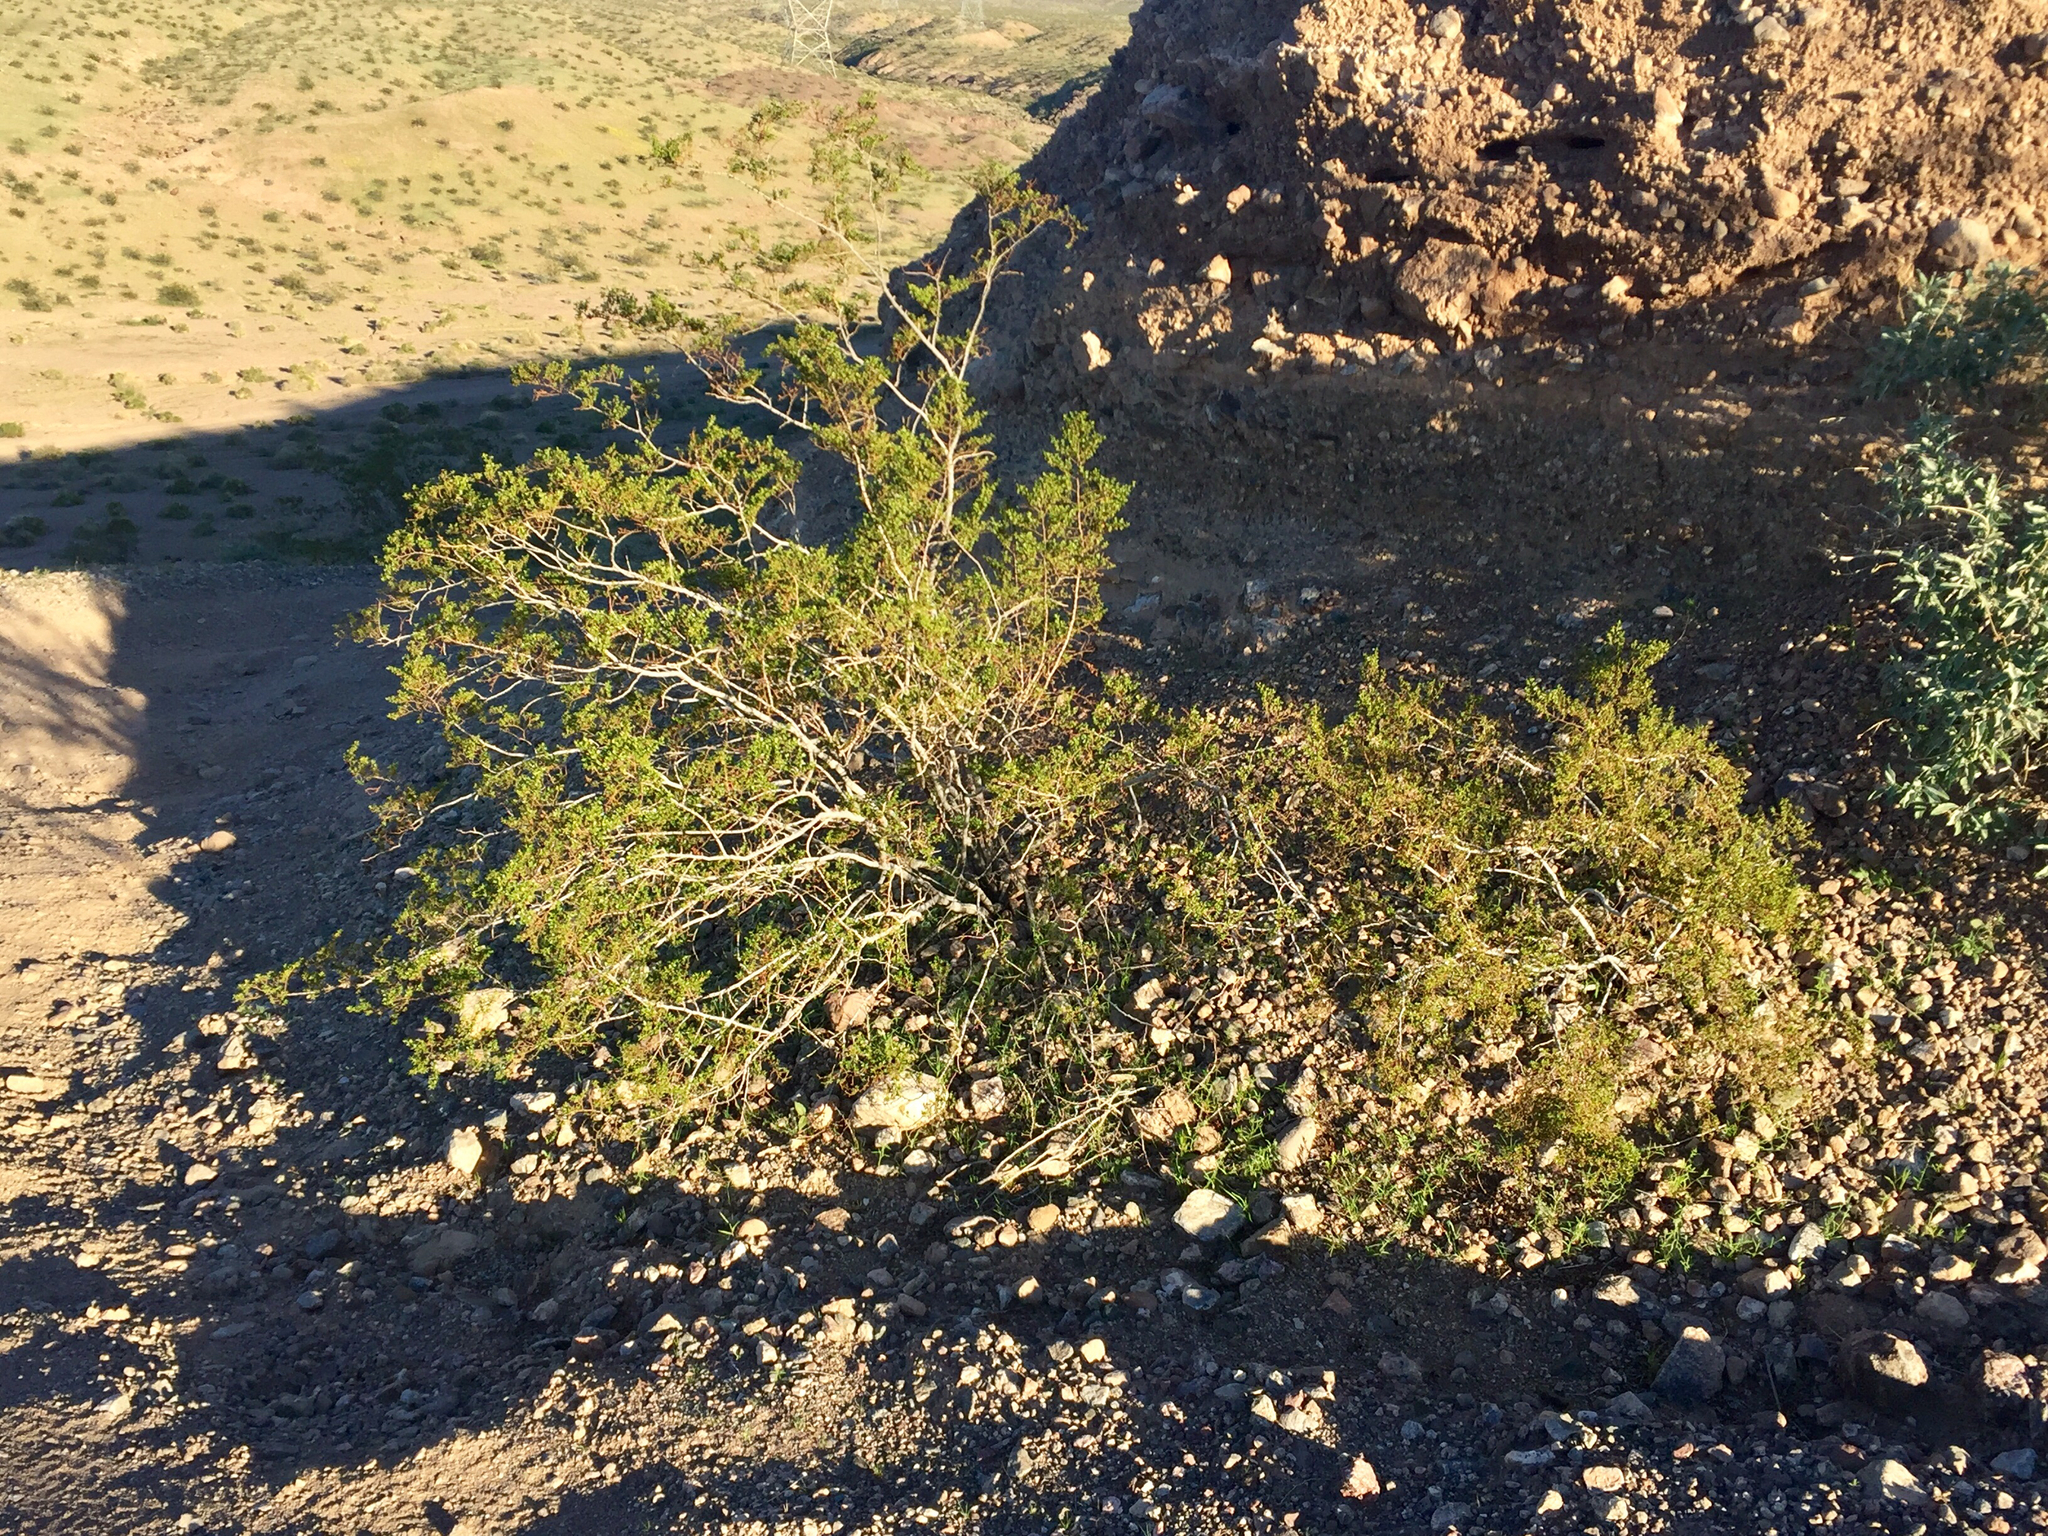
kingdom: Plantae
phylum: Tracheophyta
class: Magnoliopsida
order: Zygophyllales
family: Zygophyllaceae
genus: Larrea
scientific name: Larrea tridentata
